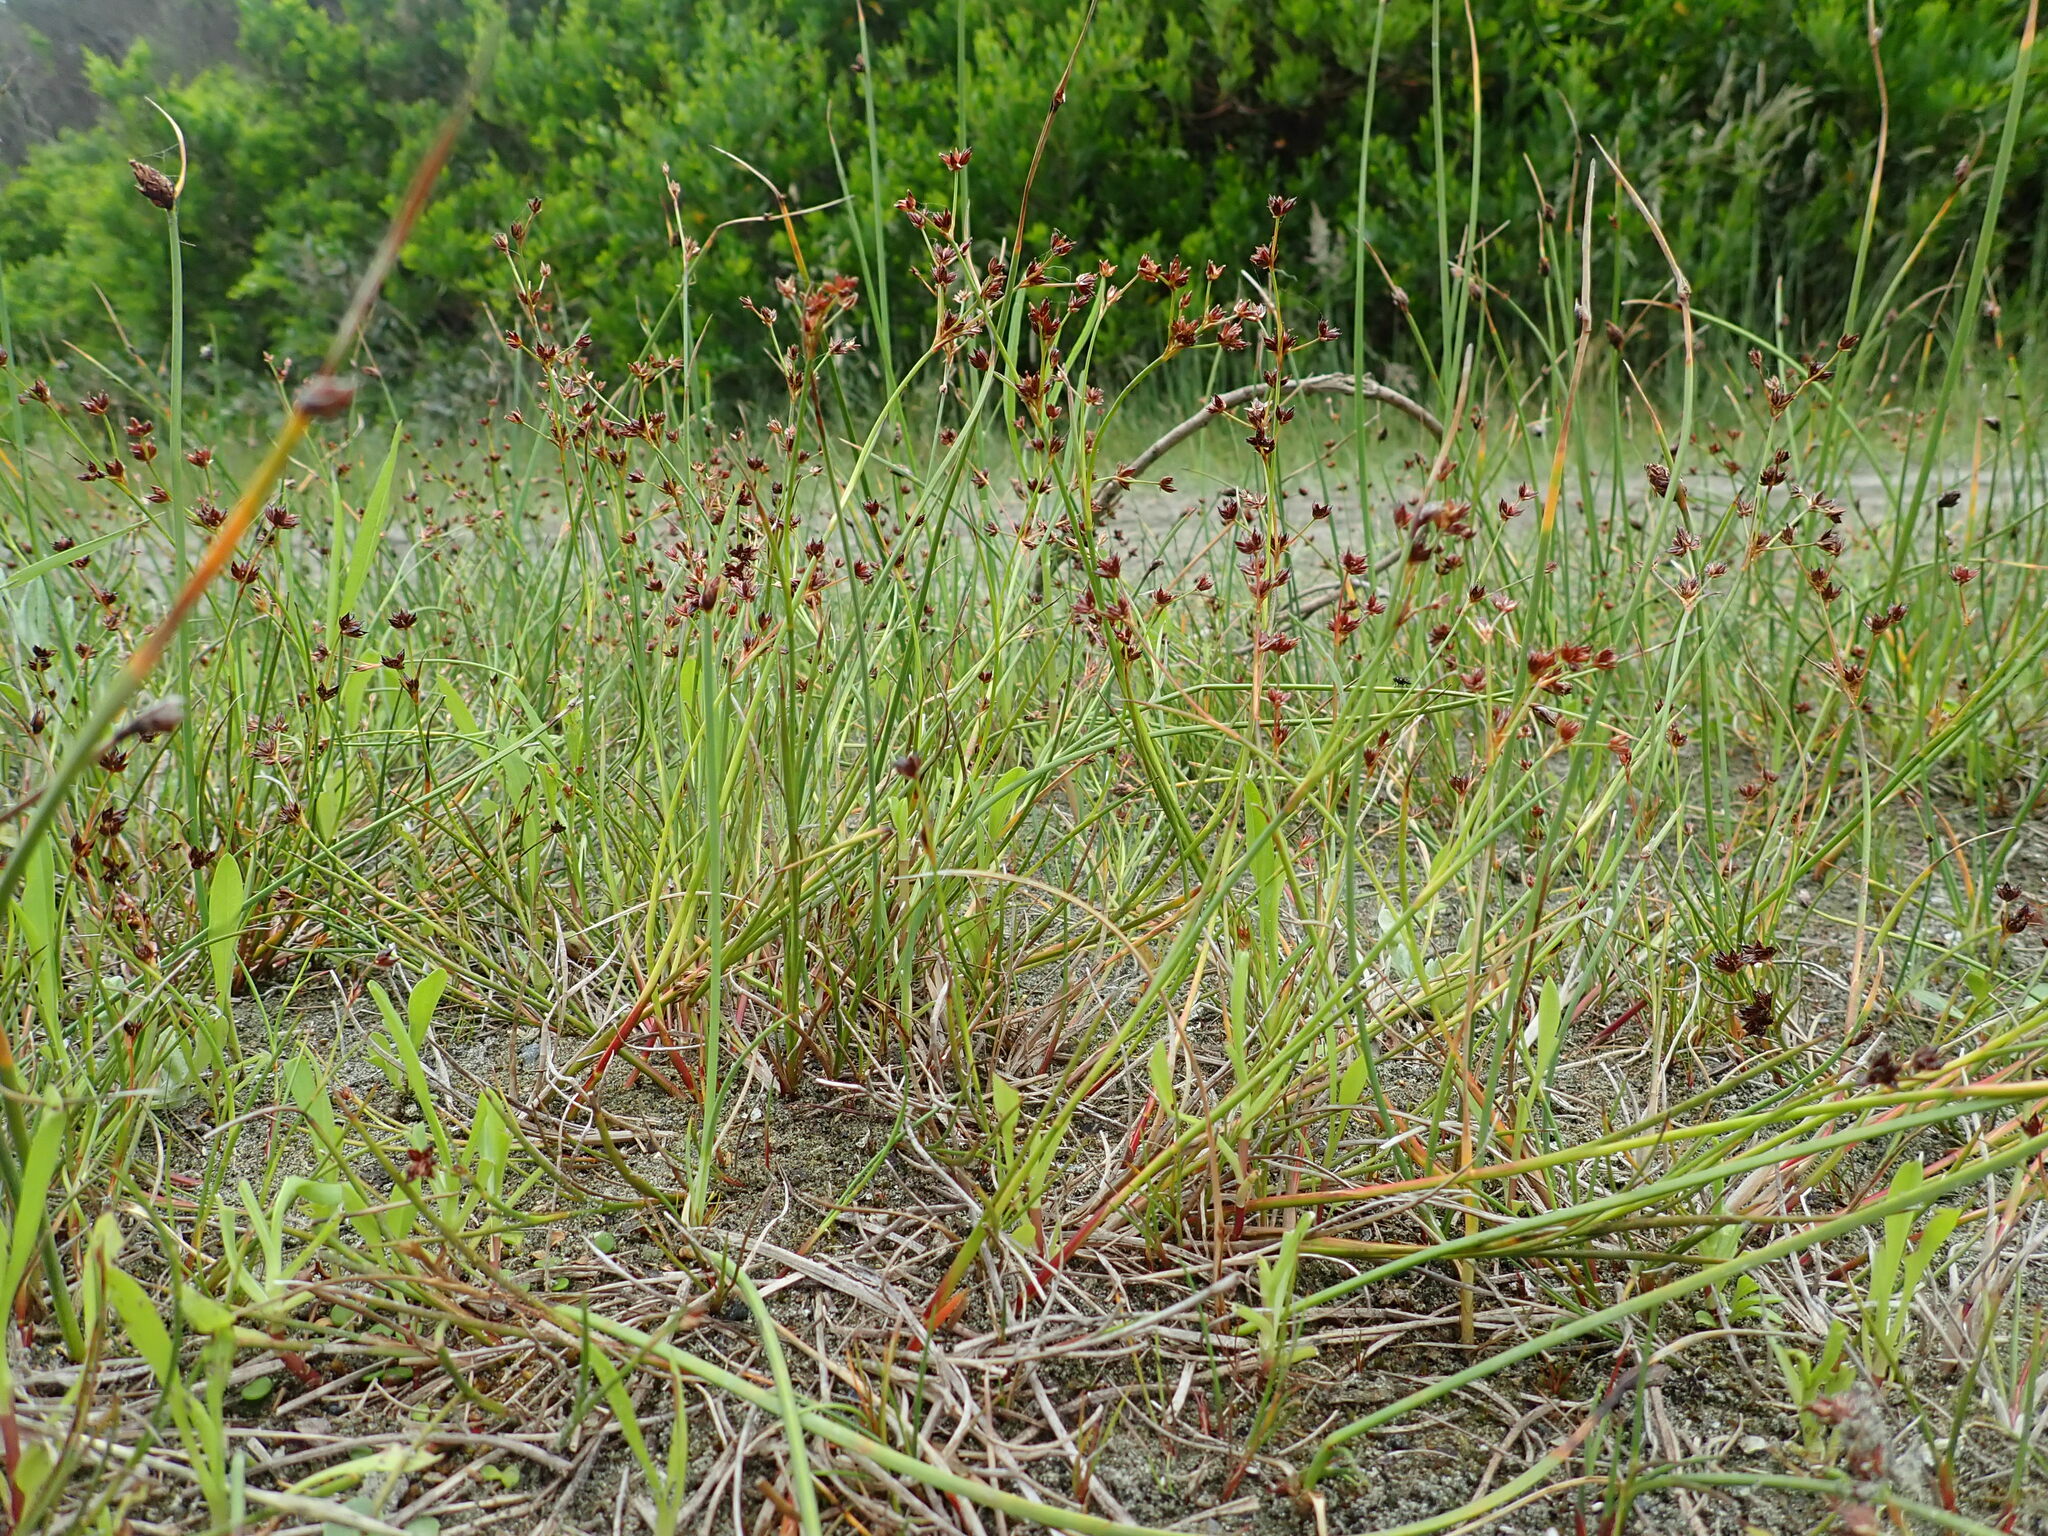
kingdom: Plantae
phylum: Tracheophyta
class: Liliopsida
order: Poales
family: Juncaceae
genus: Juncus
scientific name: Juncus articulatus
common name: Jointed rush
